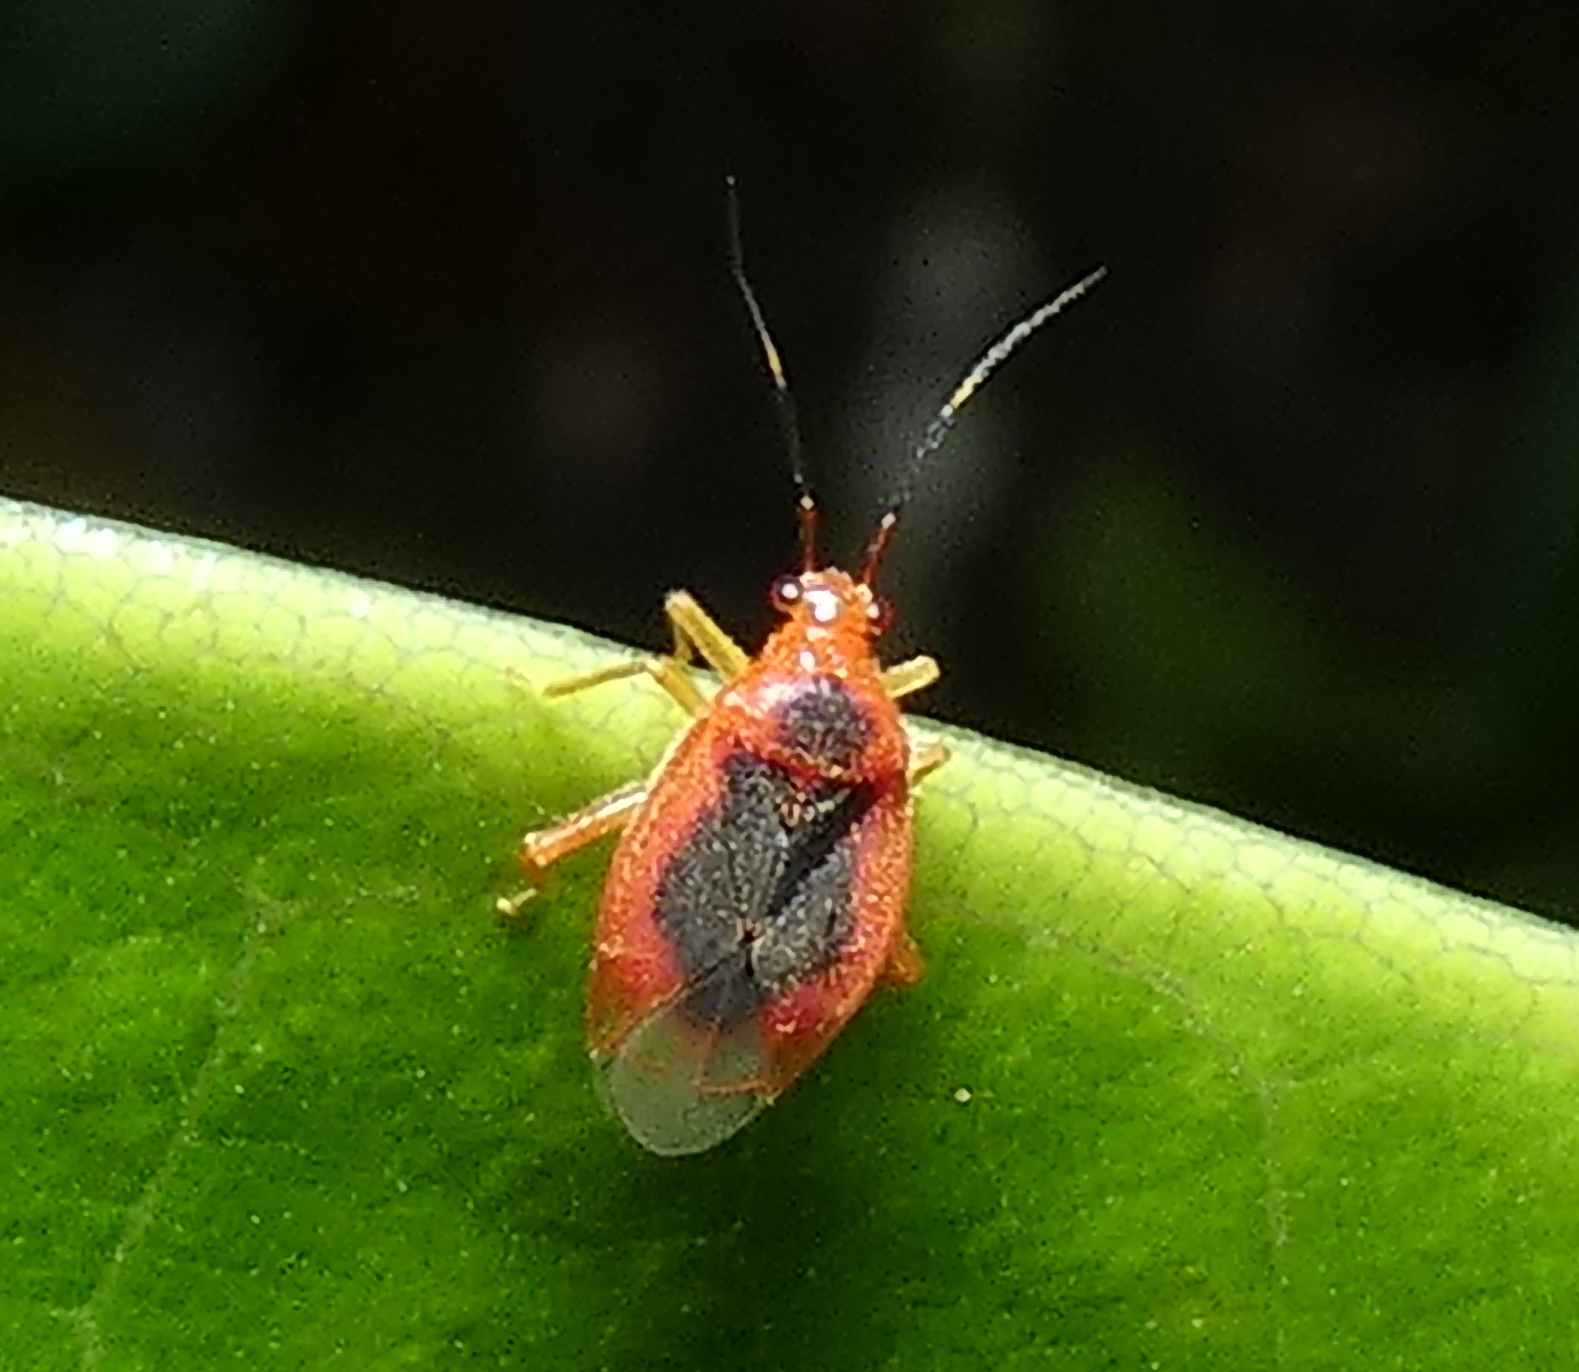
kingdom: Animalia
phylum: Arthropoda
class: Insecta
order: Hemiptera
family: Miridae
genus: Parafurius
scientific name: Parafurius discifer
